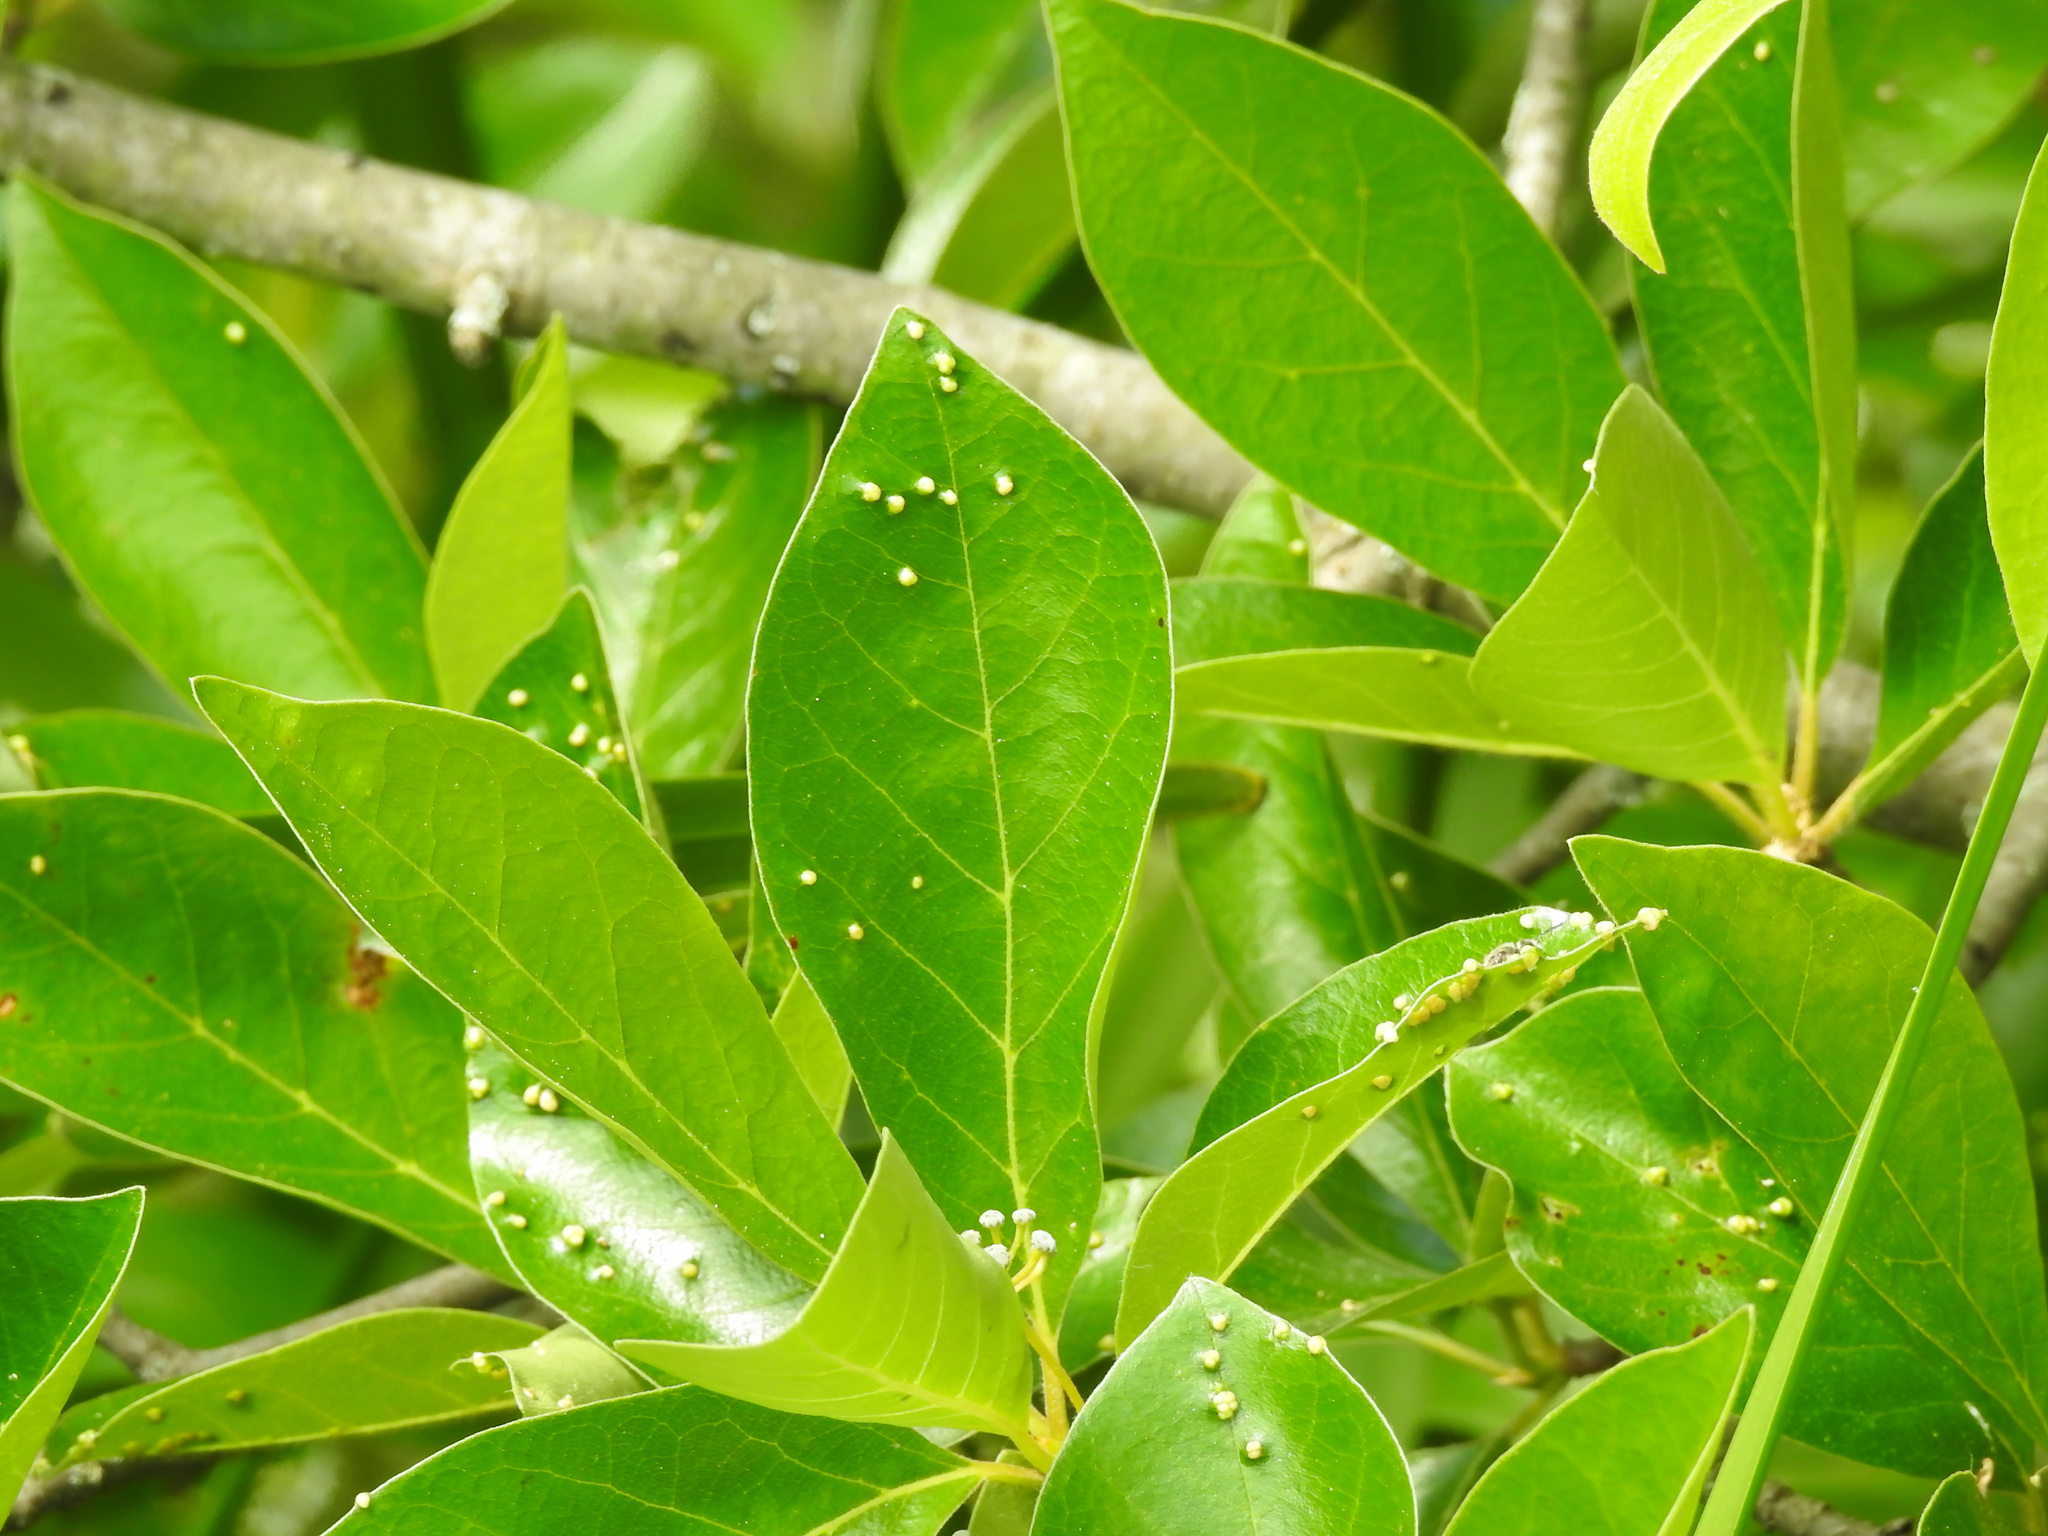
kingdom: Plantae
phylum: Tracheophyta
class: Magnoliopsida
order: Cornales
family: Nyssaceae
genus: Nyssa
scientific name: Nyssa sylvatica
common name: Black tupelo
